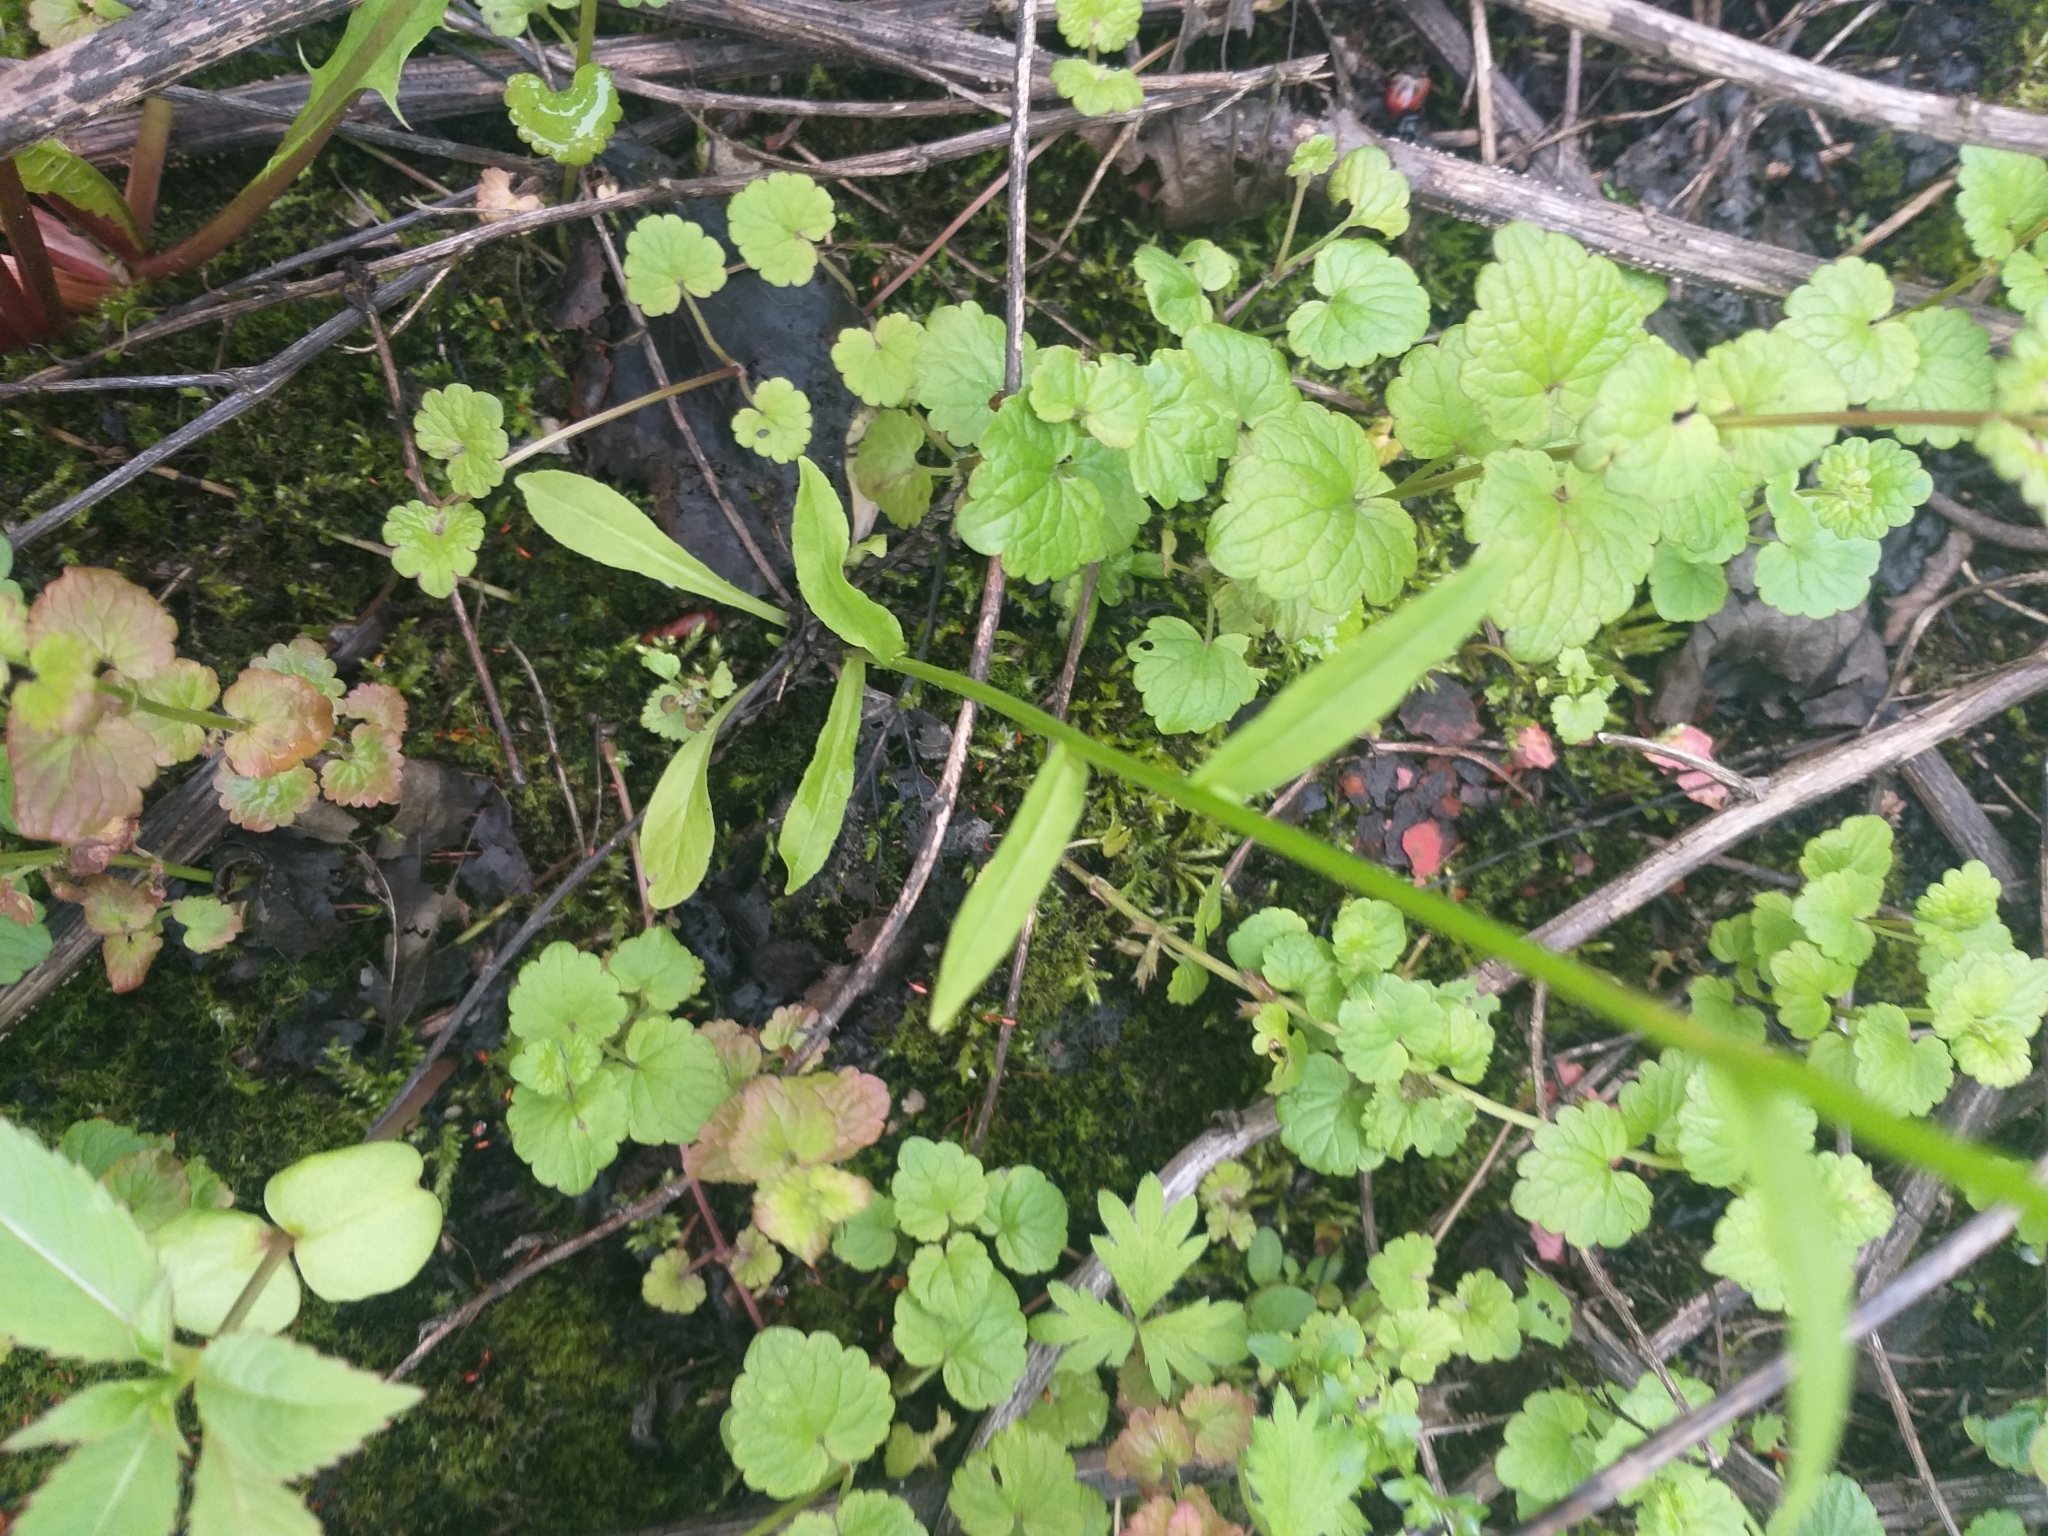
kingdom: Plantae
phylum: Tracheophyta
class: Magnoliopsida
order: Asterales
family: Campanulaceae
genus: Campanula
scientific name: Campanula patula
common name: Spreading bellflower
